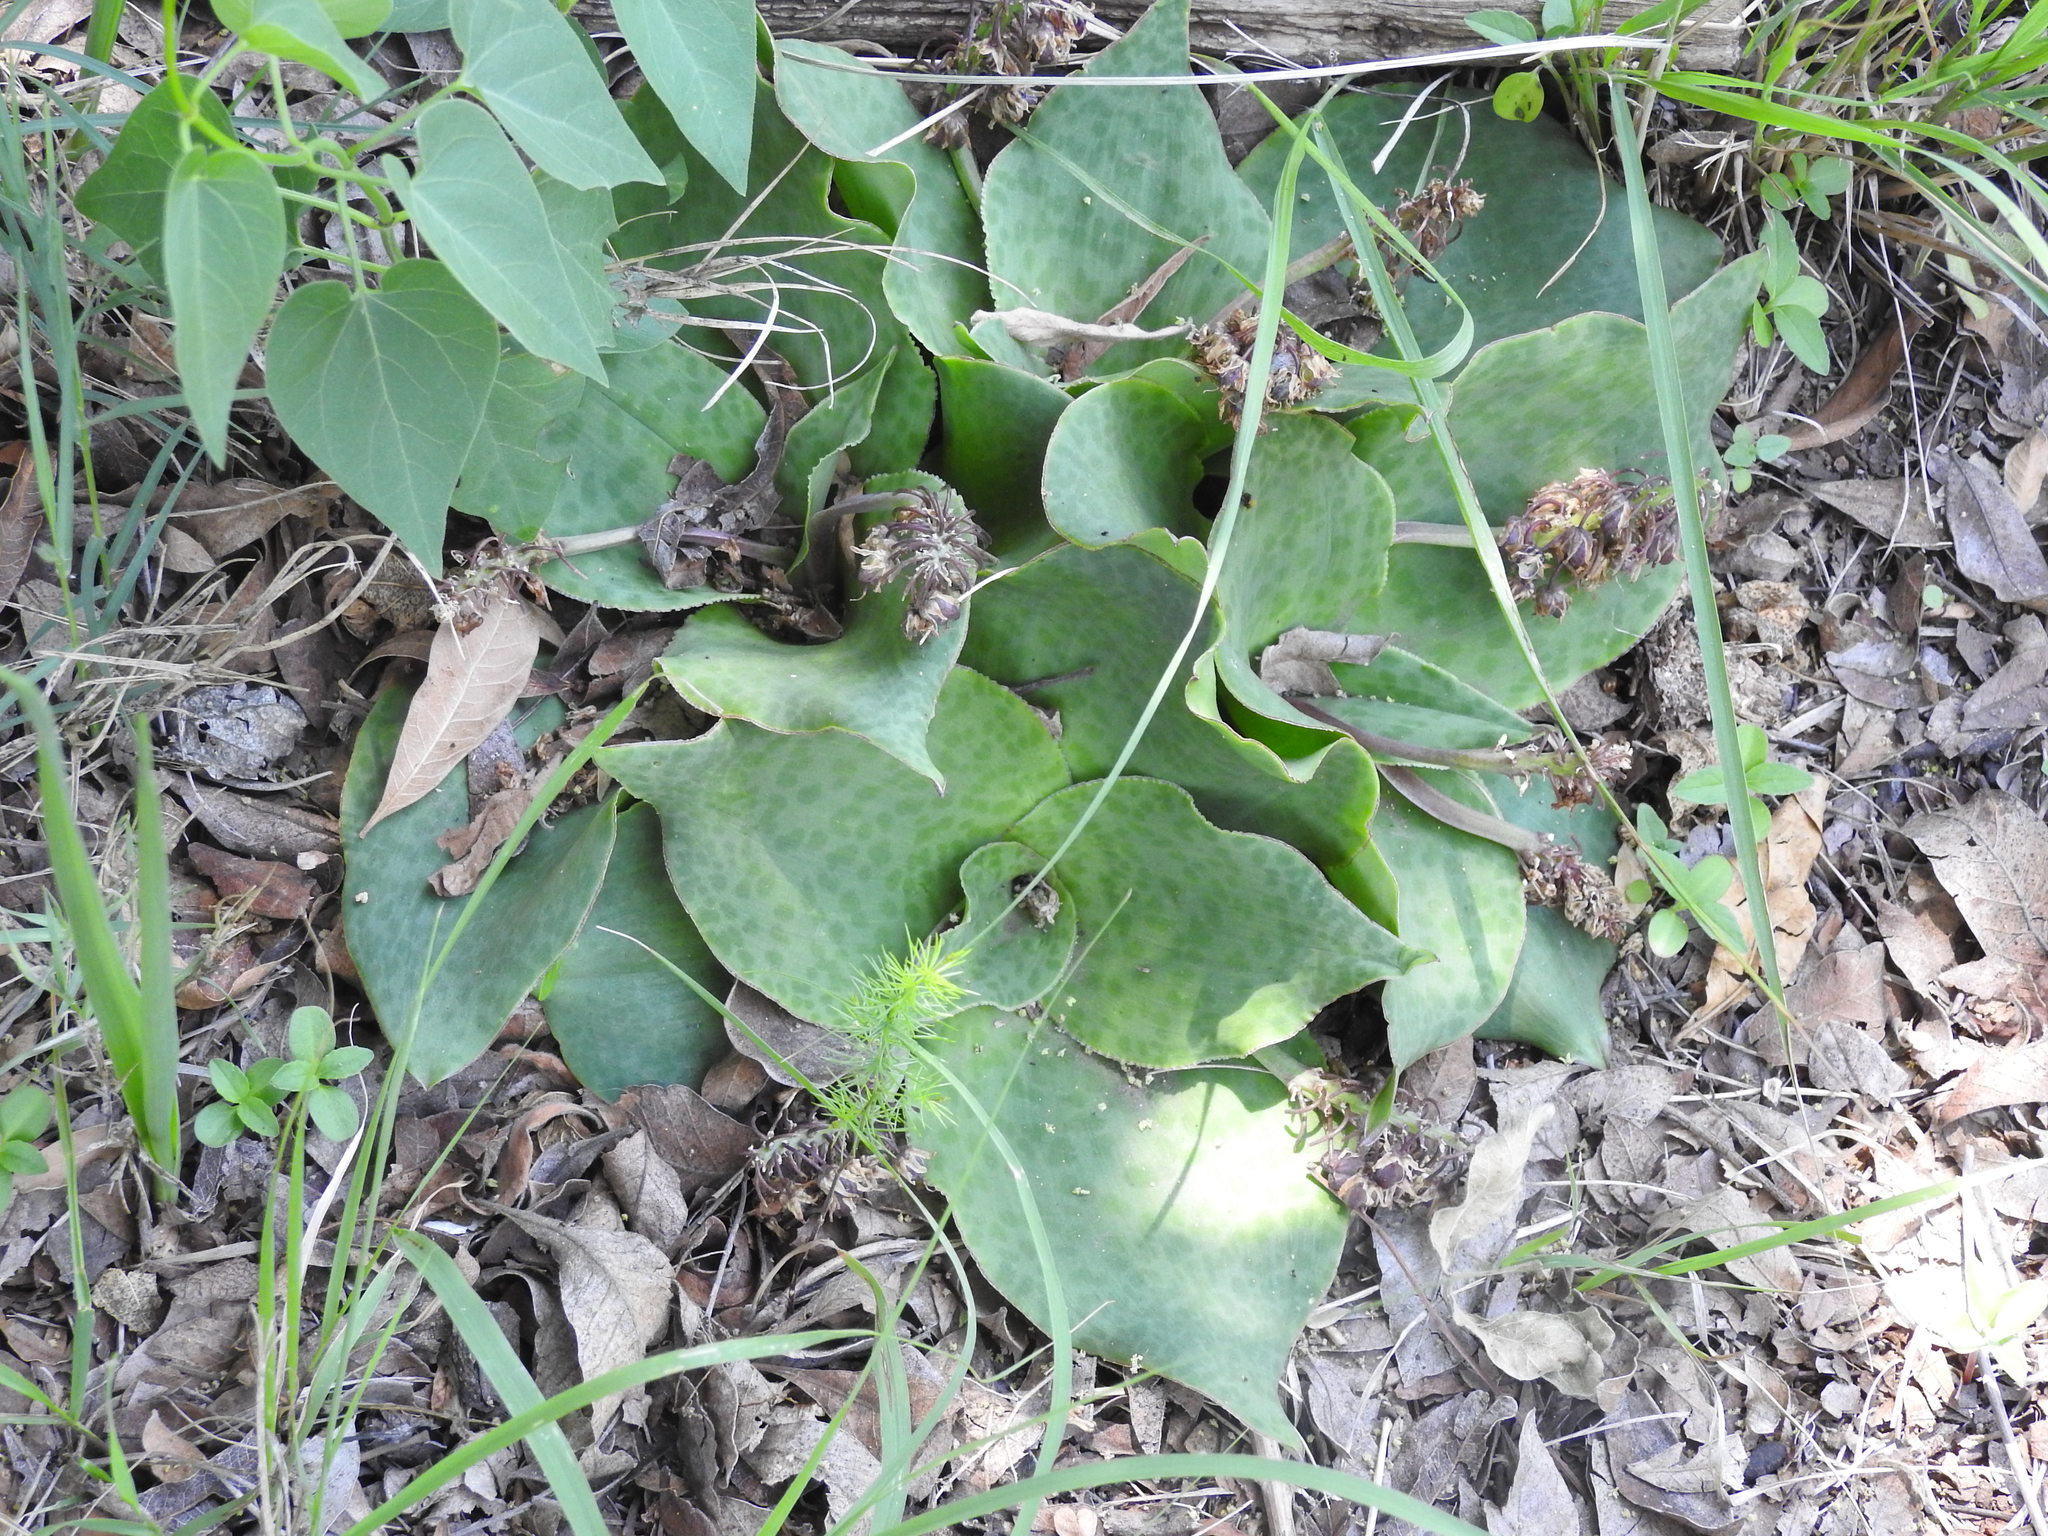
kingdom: Plantae
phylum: Tracheophyta
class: Liliopsida
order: Asparagales
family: Asparagaceae
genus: Ledebouria
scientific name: Ledebouria ovatifolia
